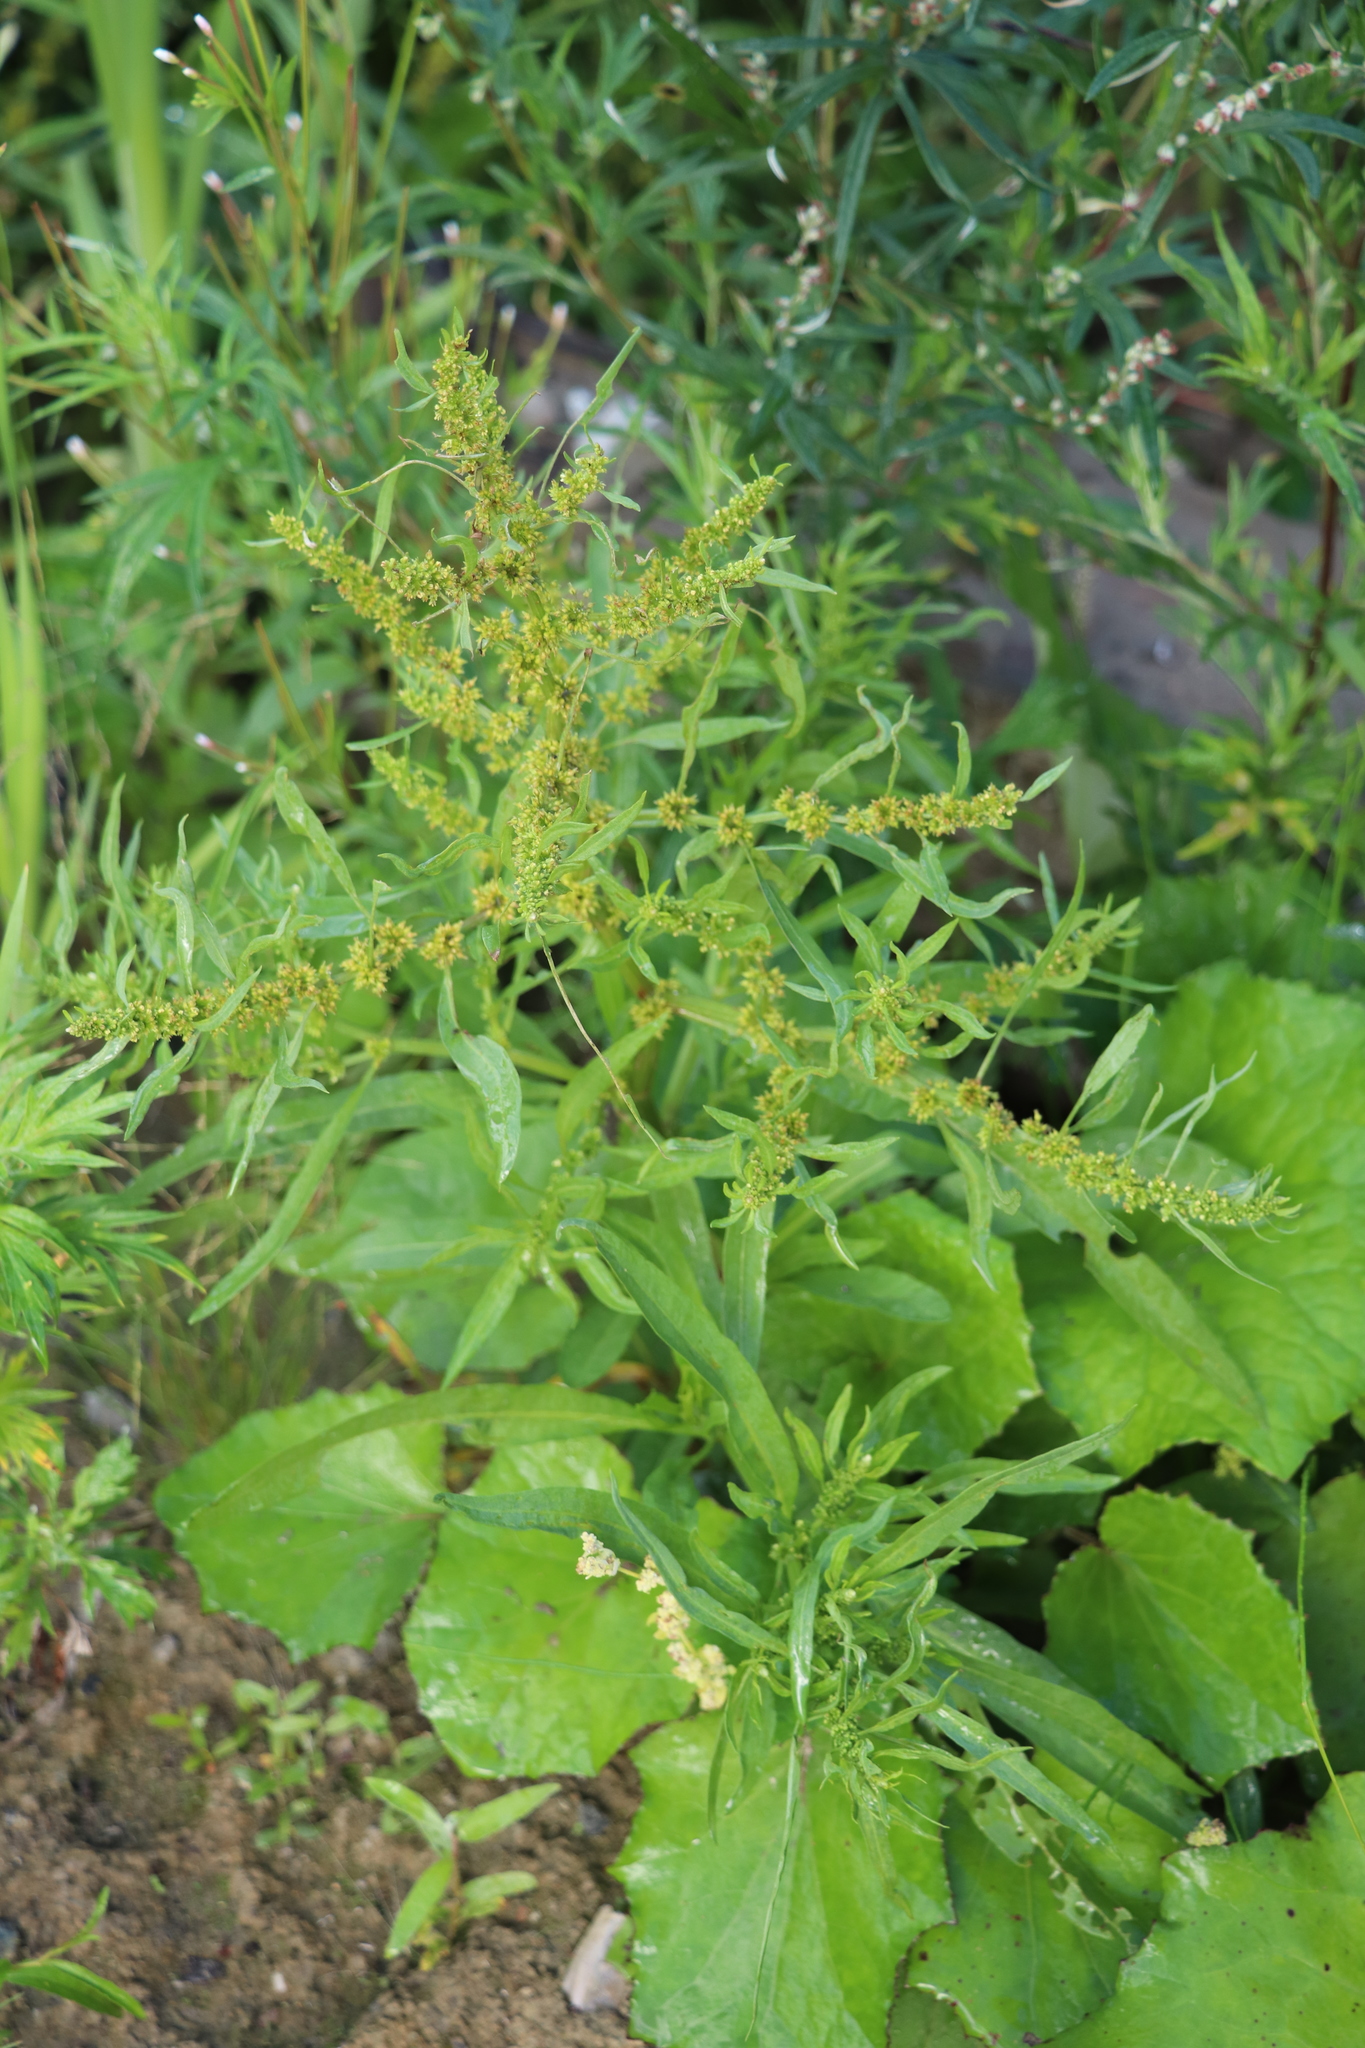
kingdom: Plantae
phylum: Tracheophyta
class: Magnoliopsida
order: Caryophyllales
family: Polygonaceae
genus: Rumex
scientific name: Rumex maritimus
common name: Golden dock
